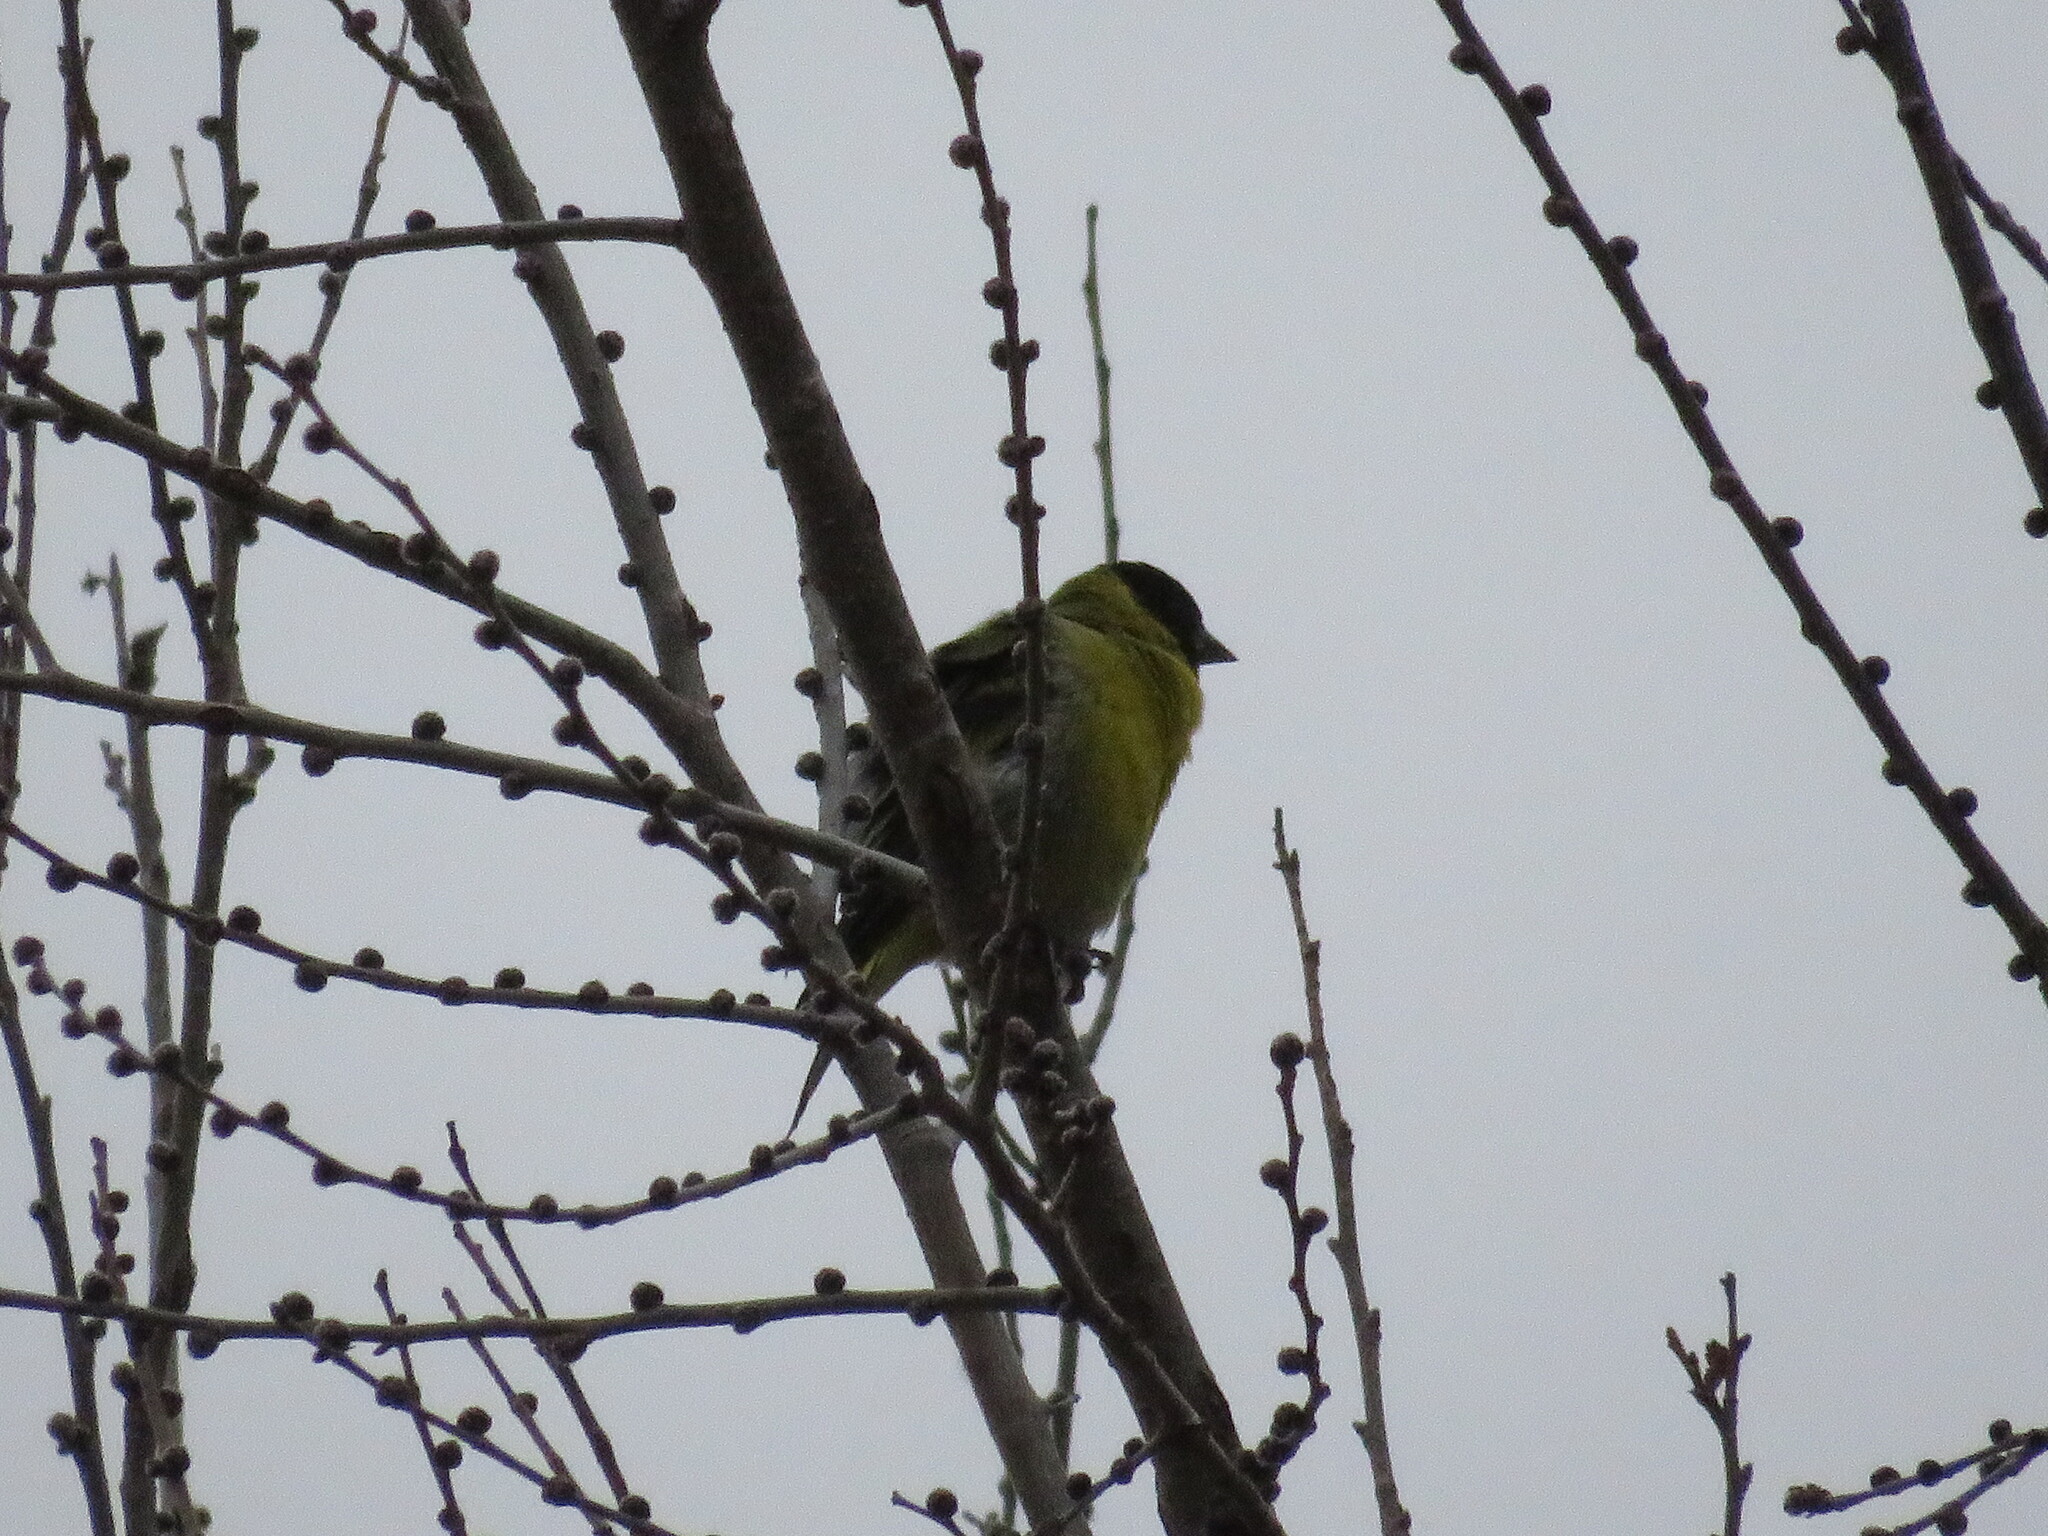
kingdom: Animalia
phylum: Chordata
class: Aves
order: Passeriformes
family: Fringillidae
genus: Spinus
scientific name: Spinus magellanicus
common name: Hooded siskin
